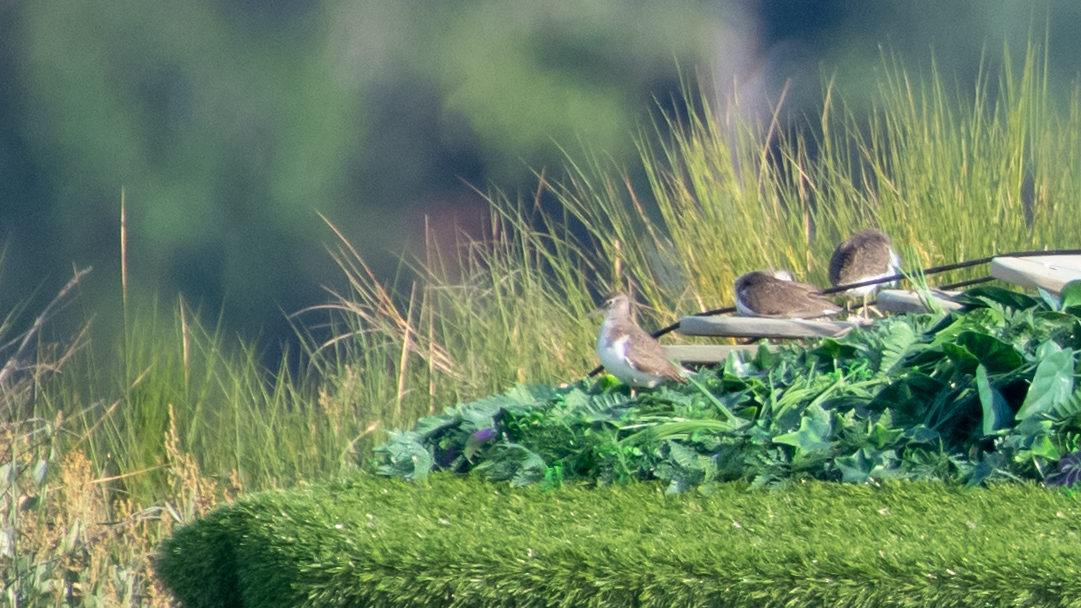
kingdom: Animalia
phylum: Chordata
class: Aves
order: Charadriiformes
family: Scolopacidae
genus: Actitis
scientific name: Actitis hypoleucos
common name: Common sandpiper
